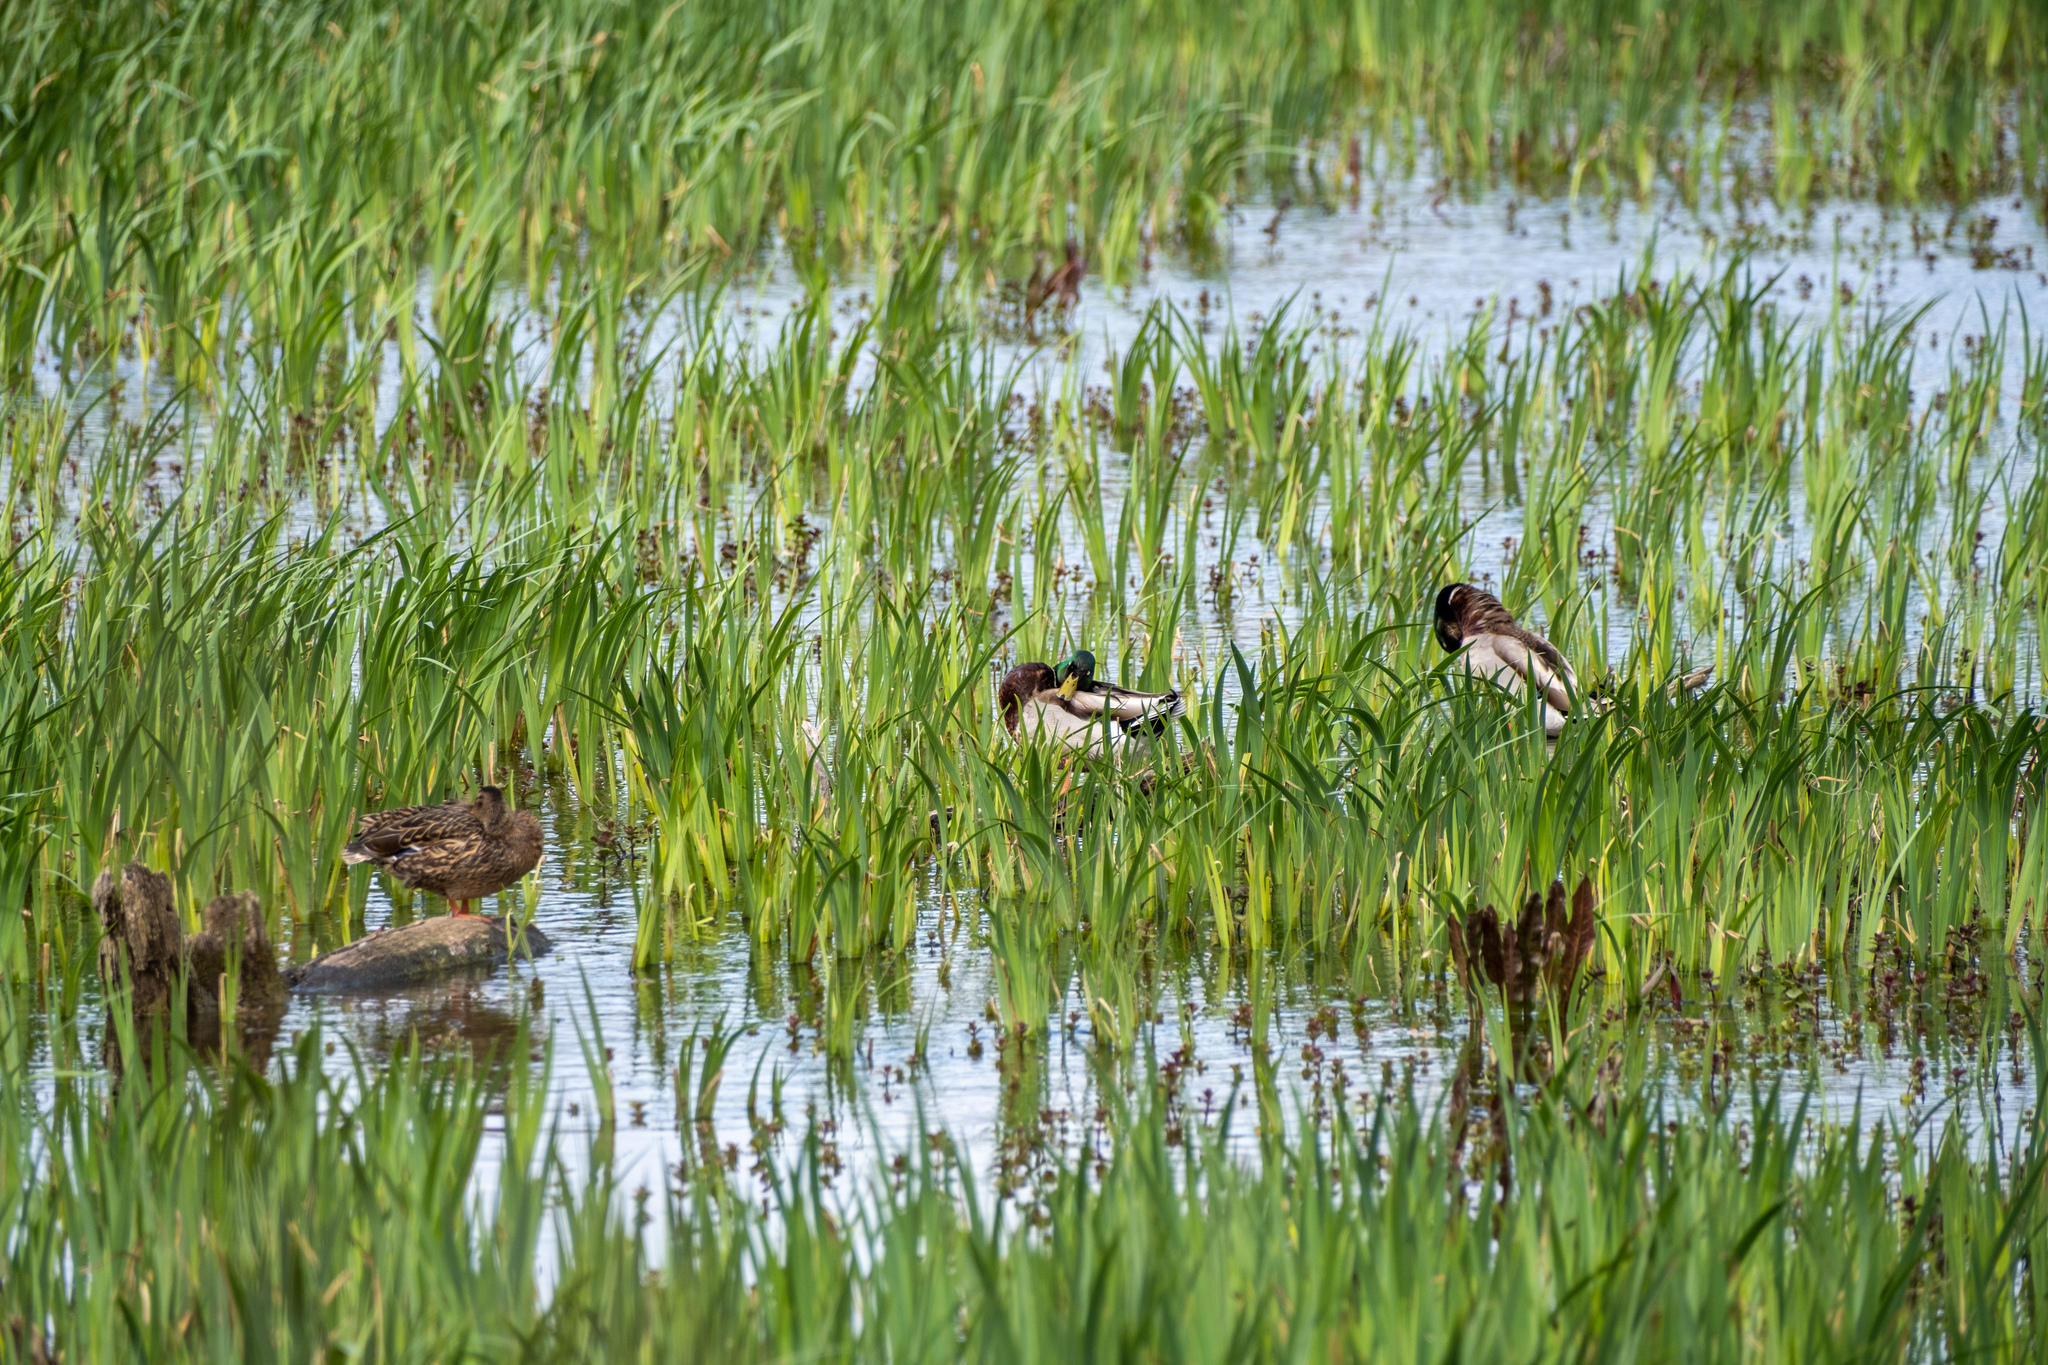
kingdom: Animalia
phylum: Chordata
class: Aves
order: Anseriformes
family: Anatidae
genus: Anas
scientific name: Anas platyrhynchos
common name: Mallard
